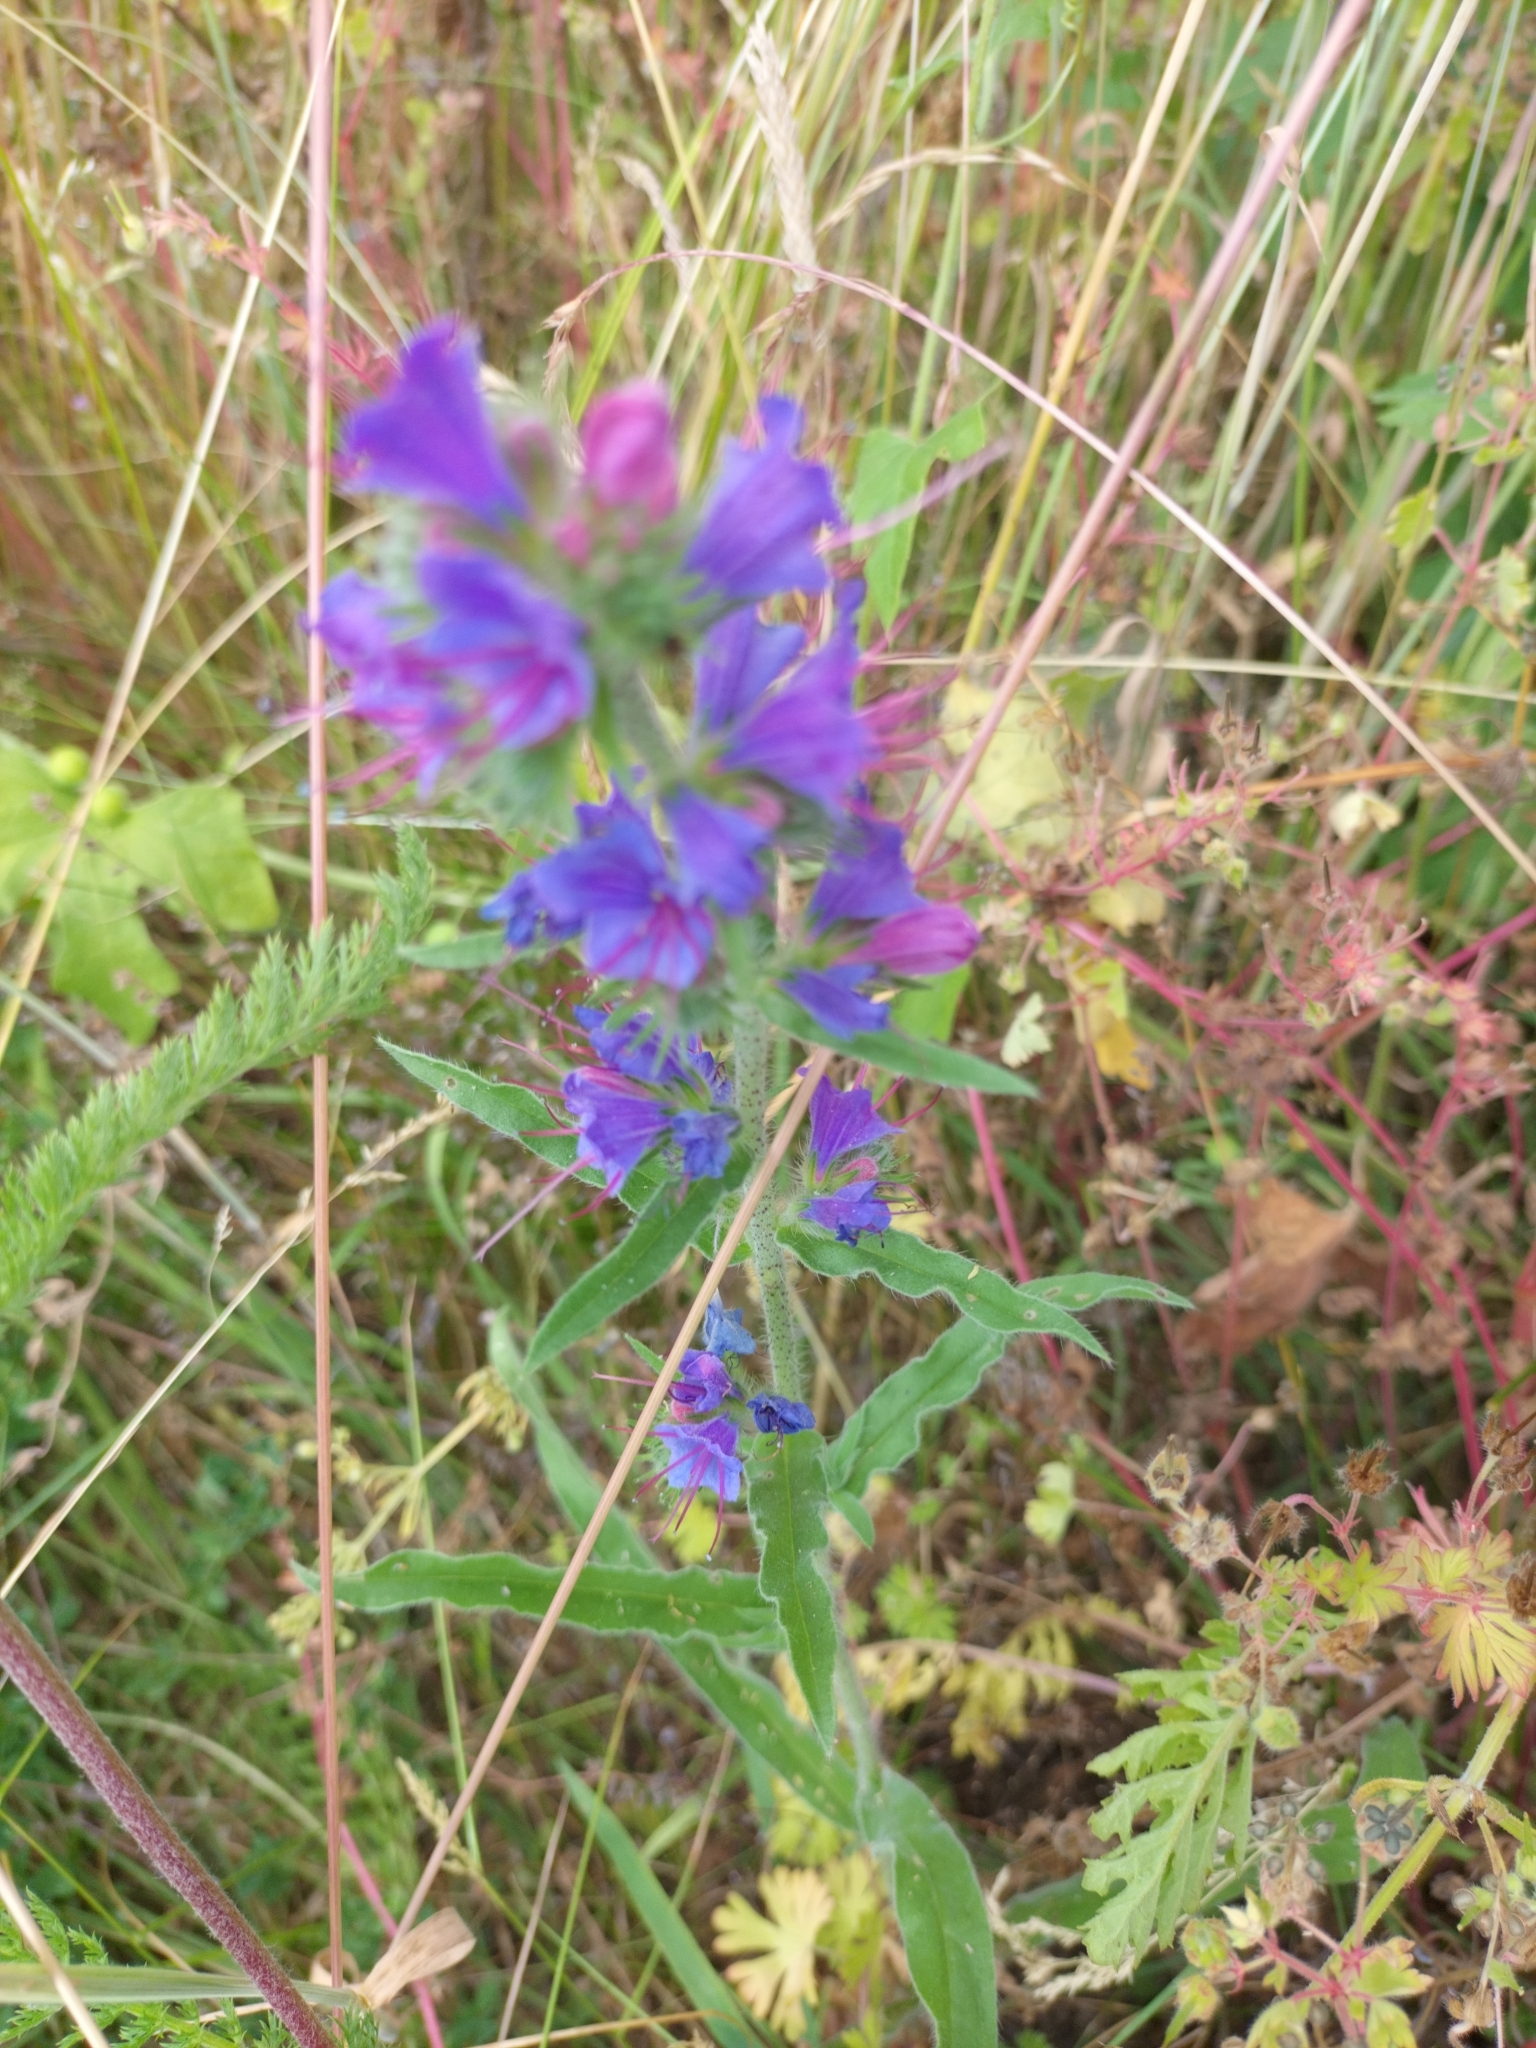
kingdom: Plantae
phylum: Tracheophyta
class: Magnoliopsida
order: Boraginales
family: Boraginaceae
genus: Echium
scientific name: Echium vulgare
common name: Common viper's bugloss
